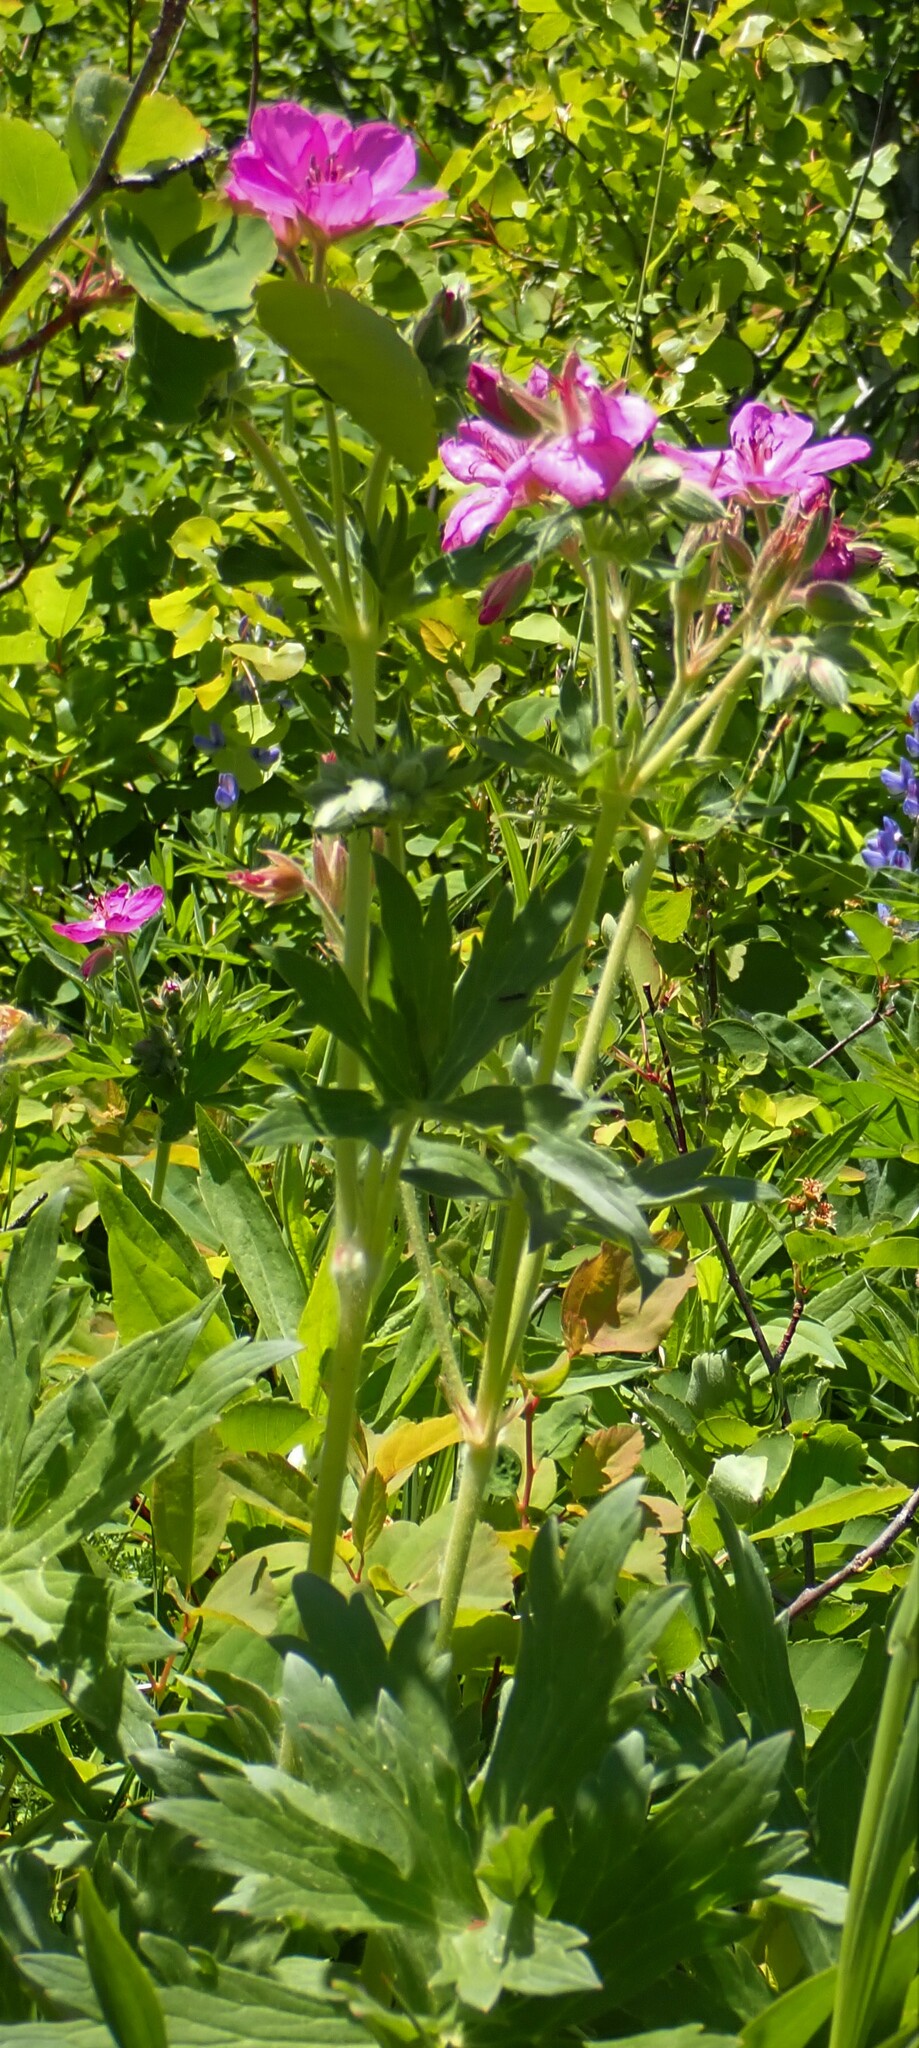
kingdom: Plantae
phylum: Tracheophyta
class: Magnoliopsida
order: Geraniales
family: Geraniaceae
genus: Geranium
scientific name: Geranium viscosissimum
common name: Purple geranium
